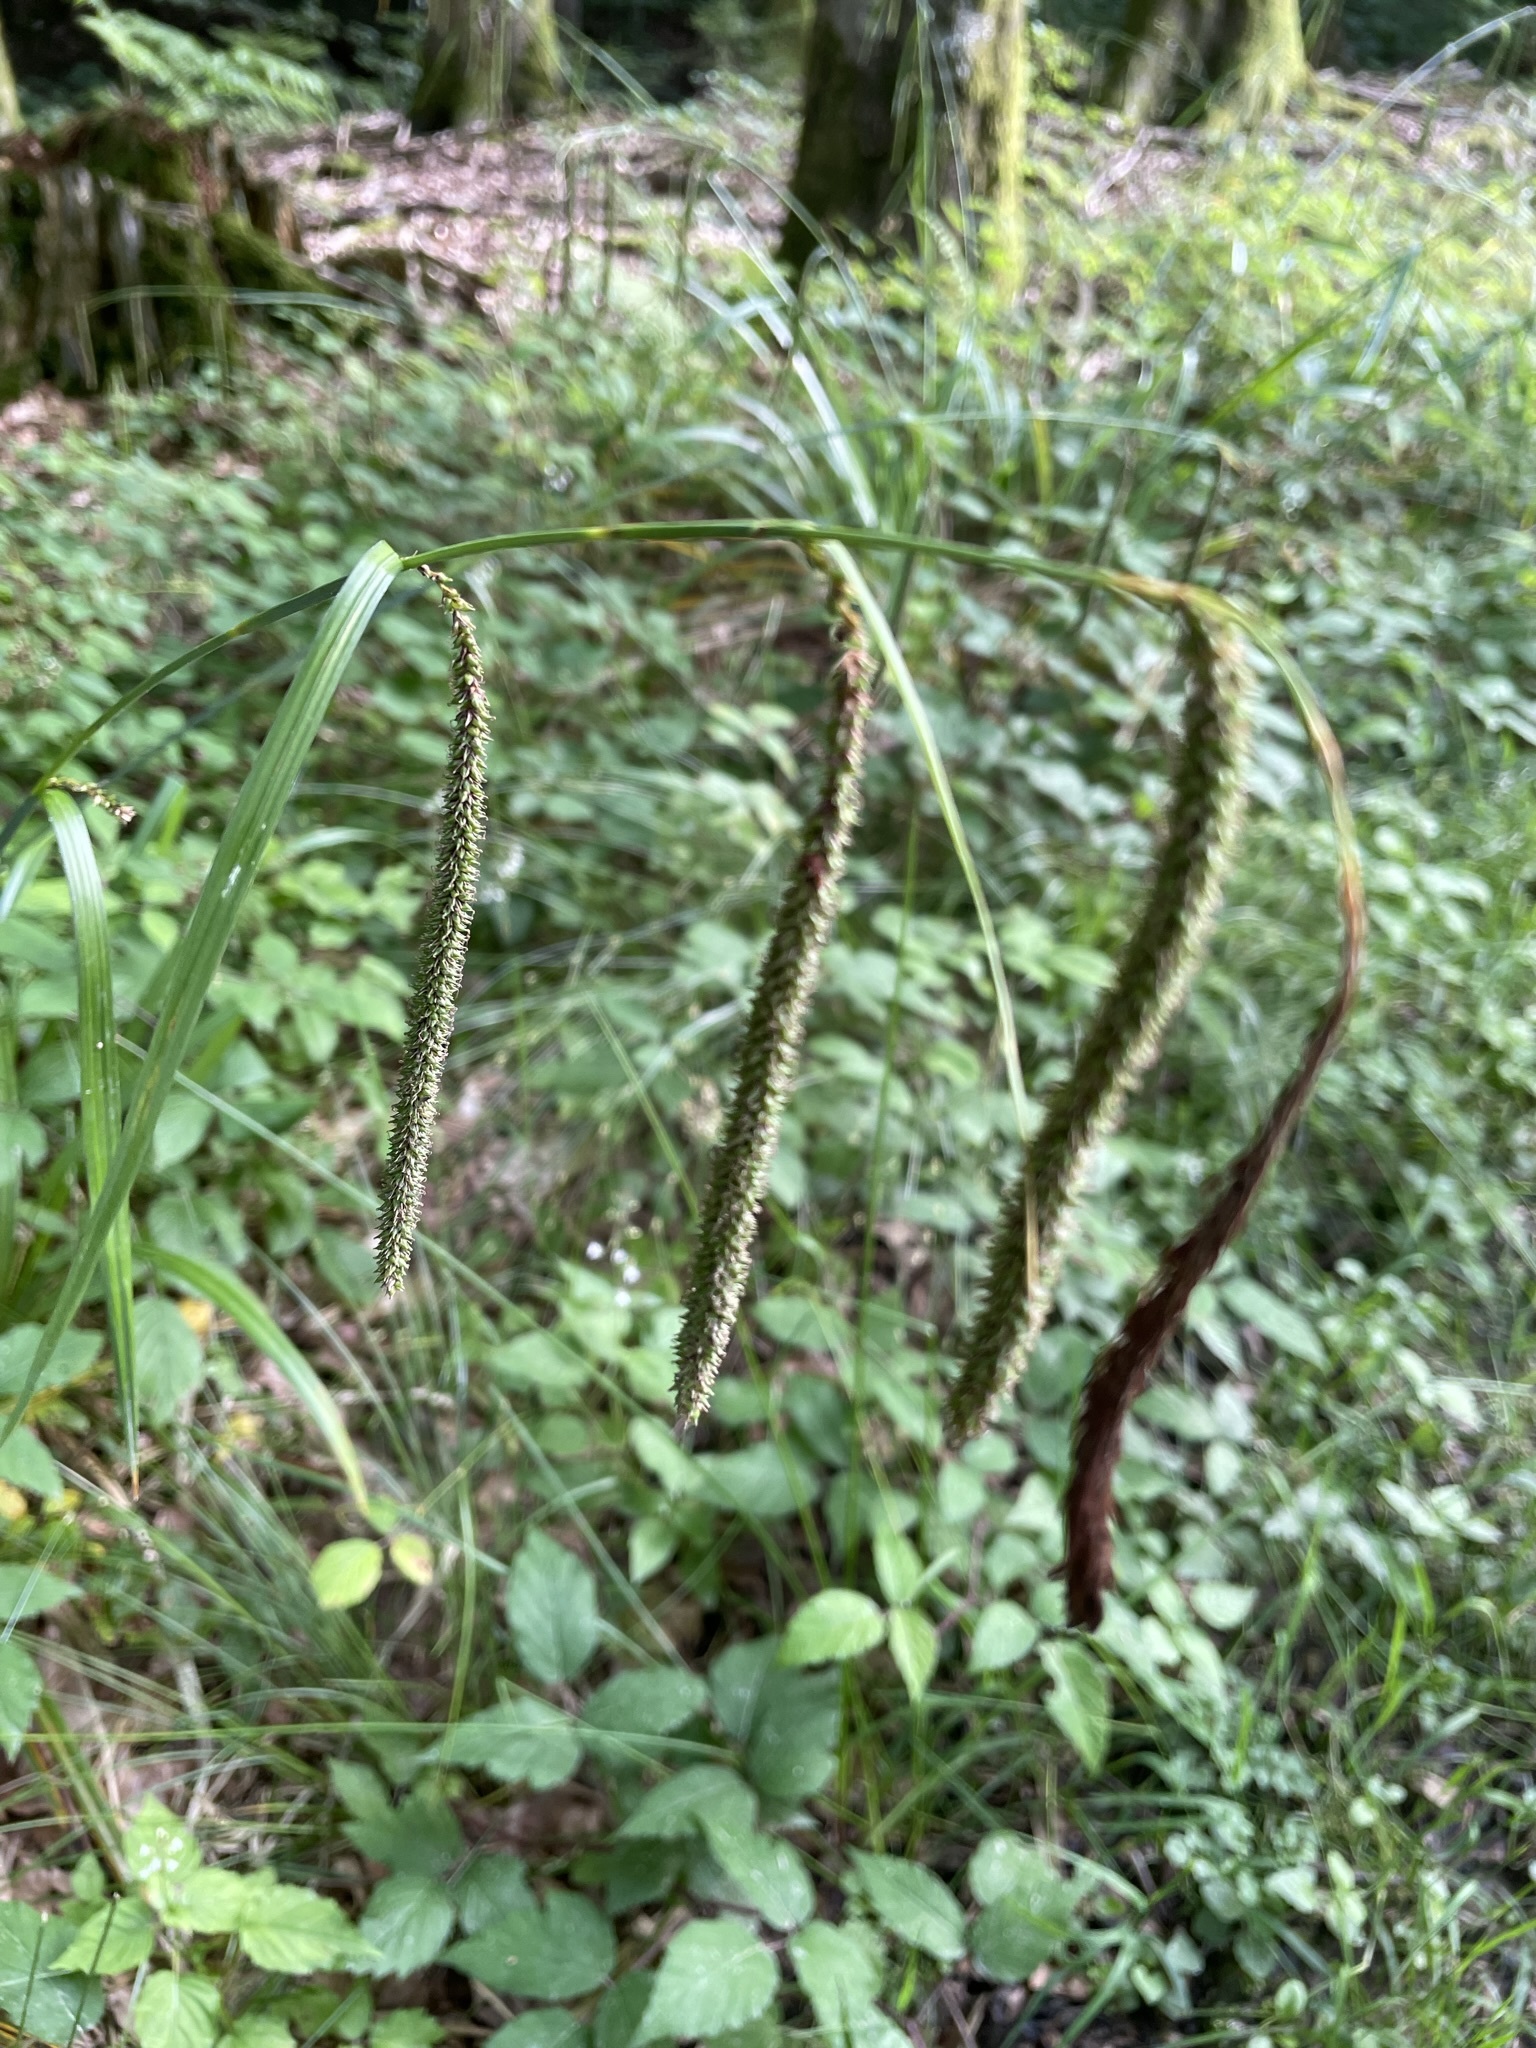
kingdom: Plantae
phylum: Tracheophyta
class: Liliopsida
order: Poales
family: Cyperaceae
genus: Carex
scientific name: Carex agastachys
